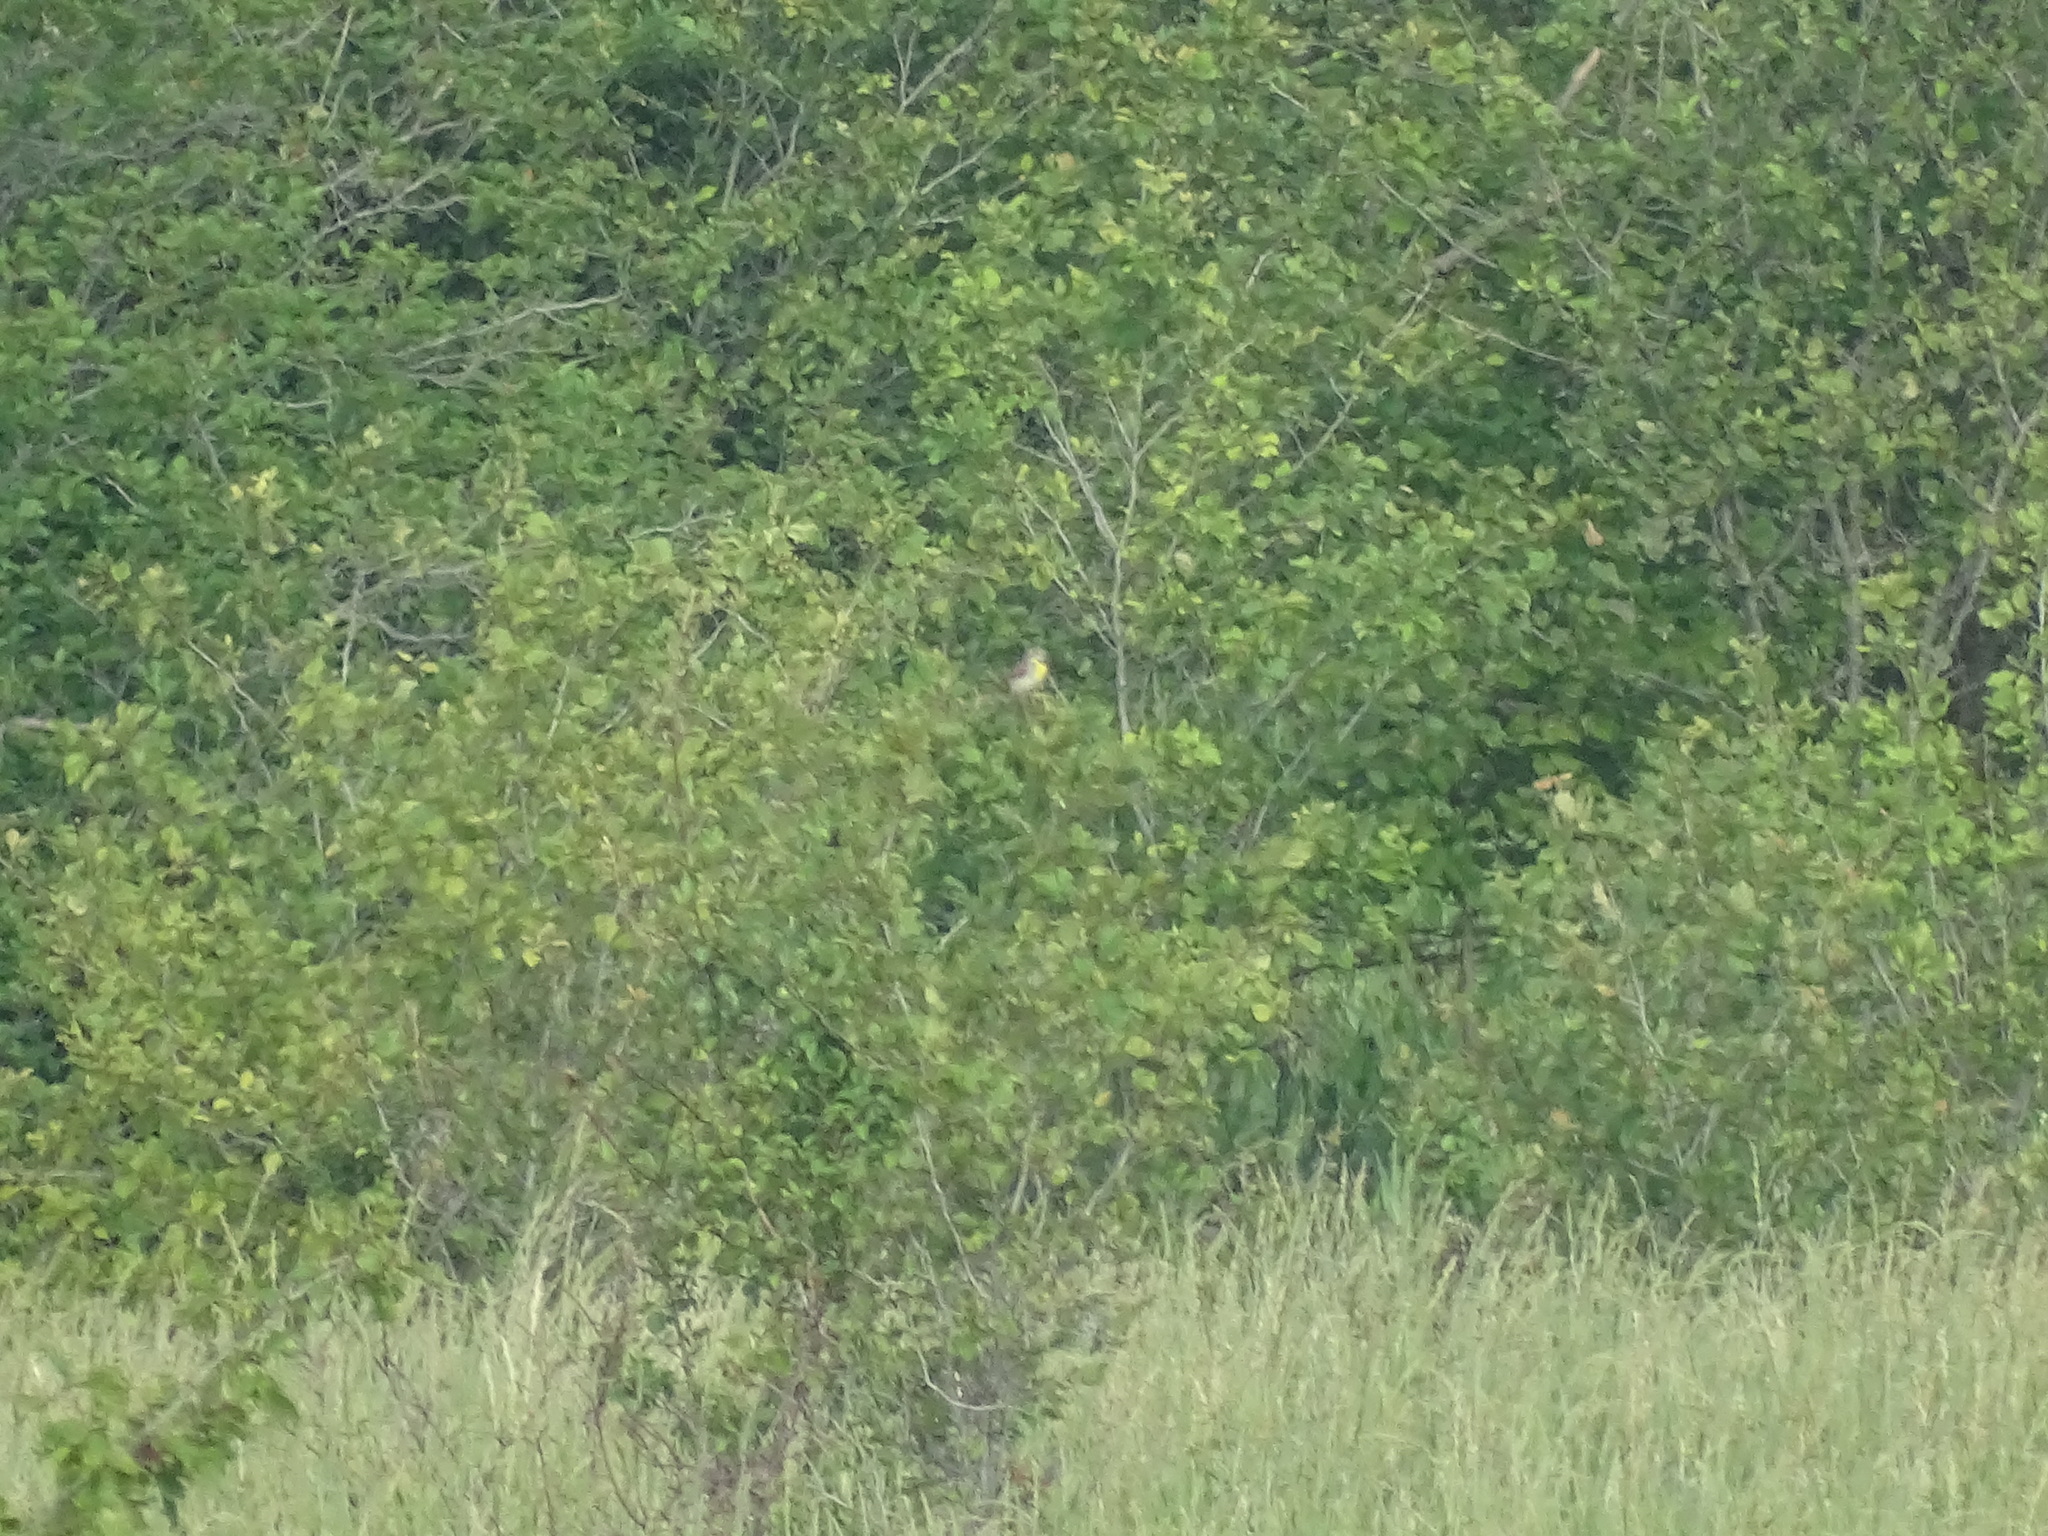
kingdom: Animalia
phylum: Chordata
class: Aves
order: Passeriformes
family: Cardinalidae
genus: Spiza
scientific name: Spiza americana
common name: Dickcissel
